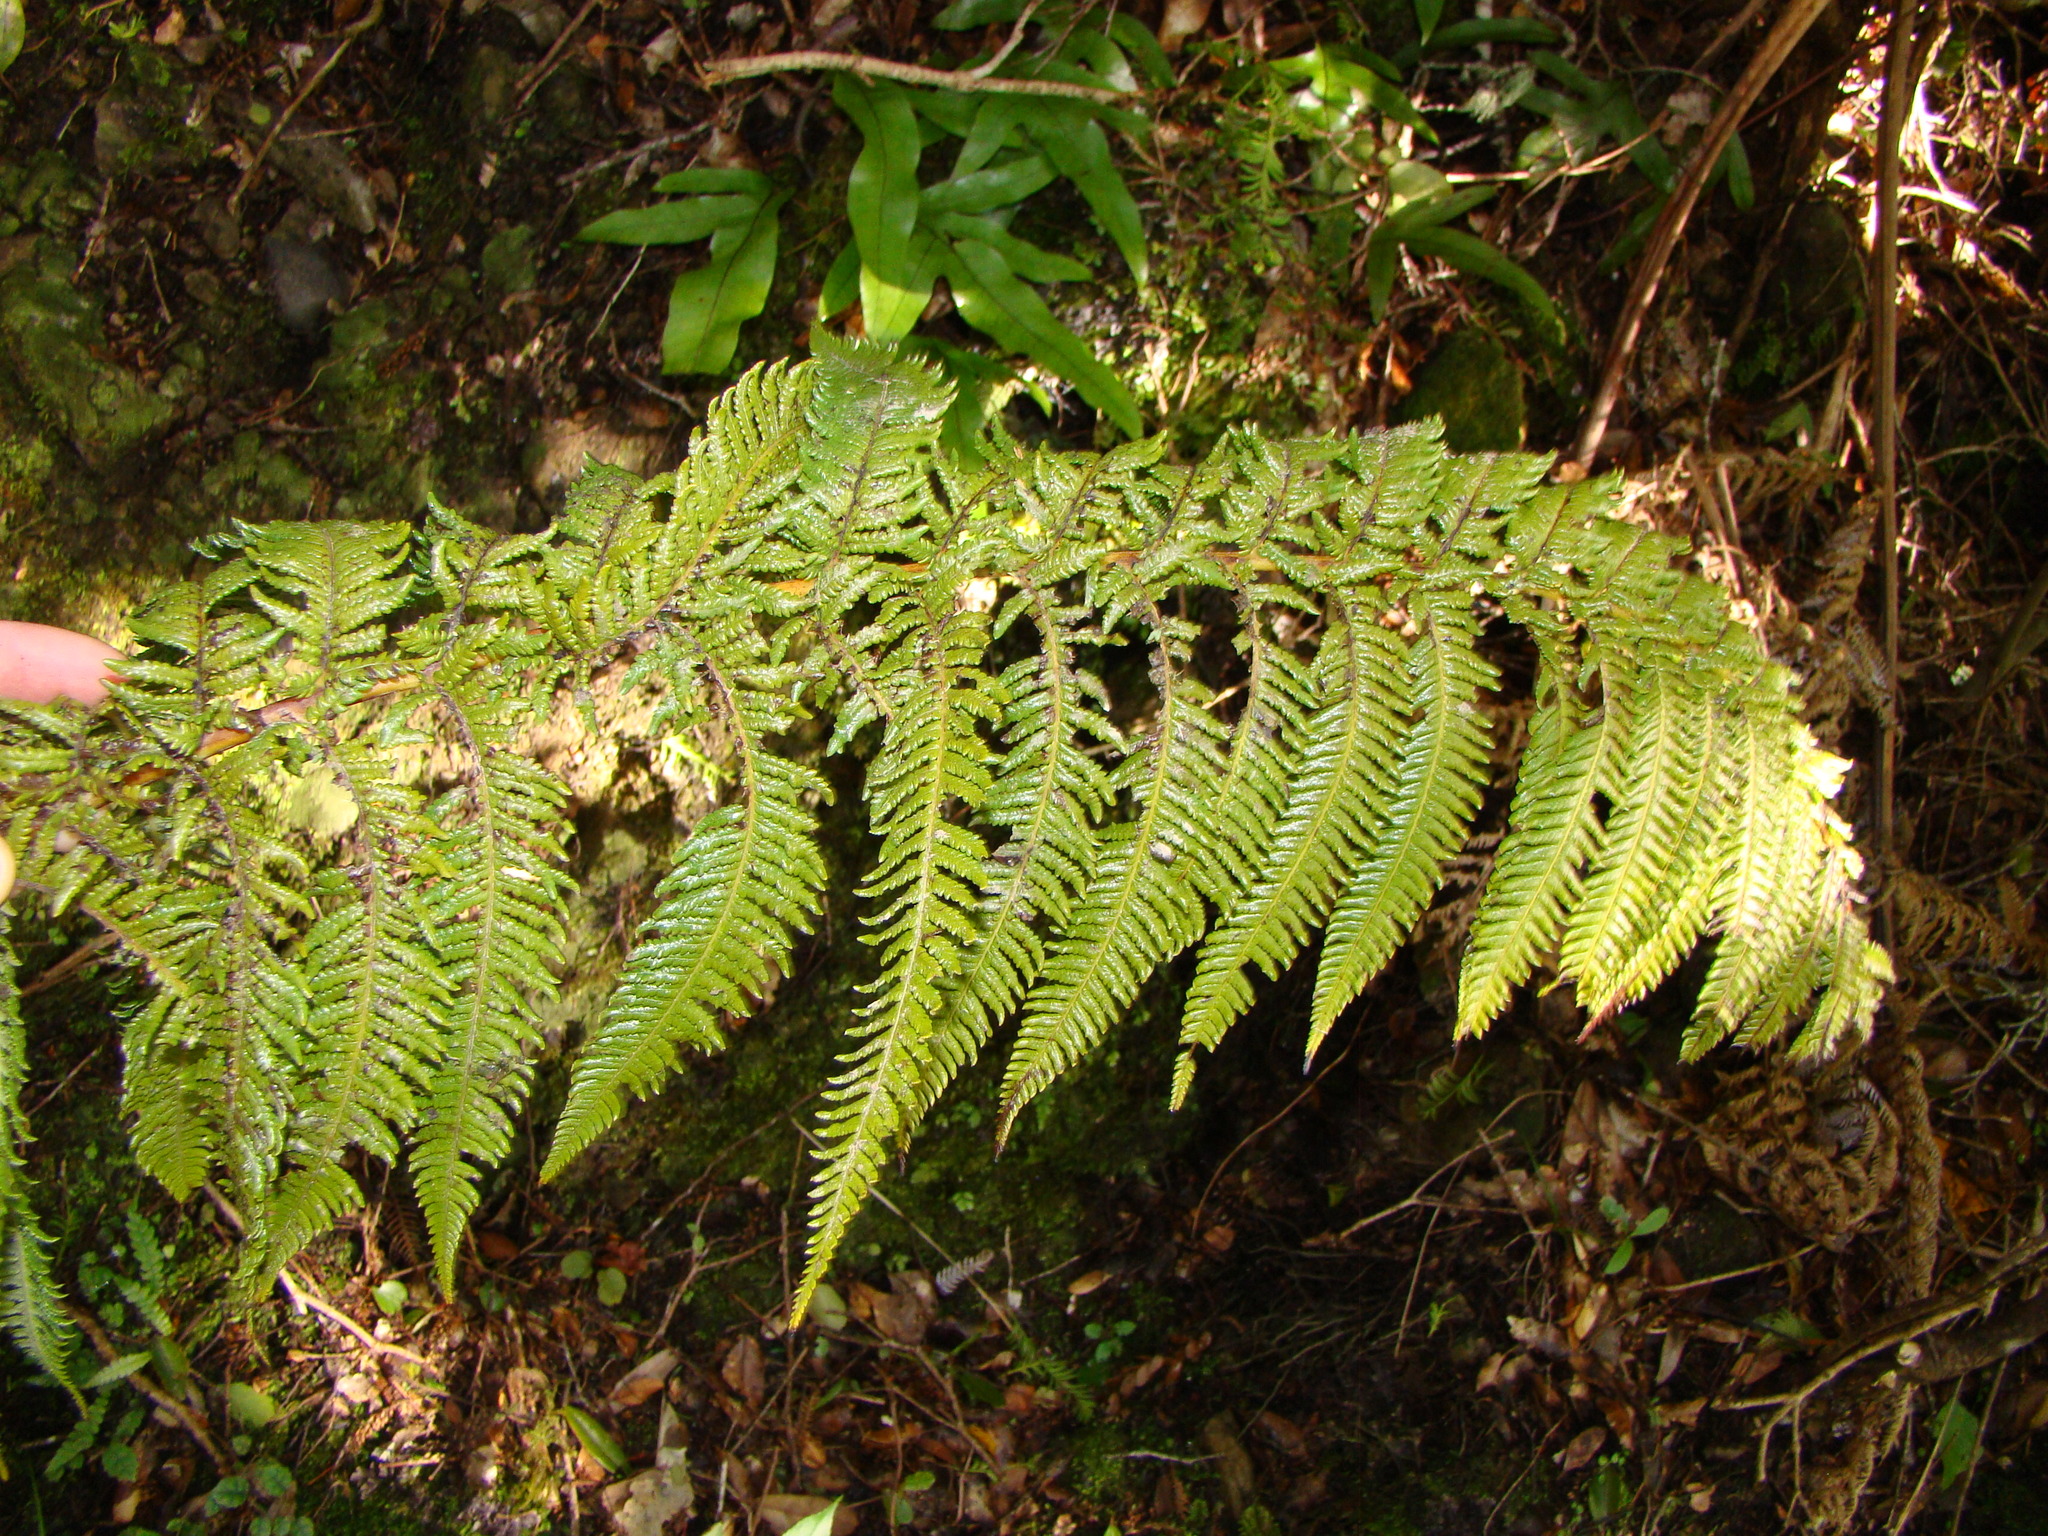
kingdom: Plantae
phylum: Tracheophyta
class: Polypodiopsida
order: Cyatheales
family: Cyatheaceae
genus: Sphaeropteris
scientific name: Sphaeropteris medullaris
